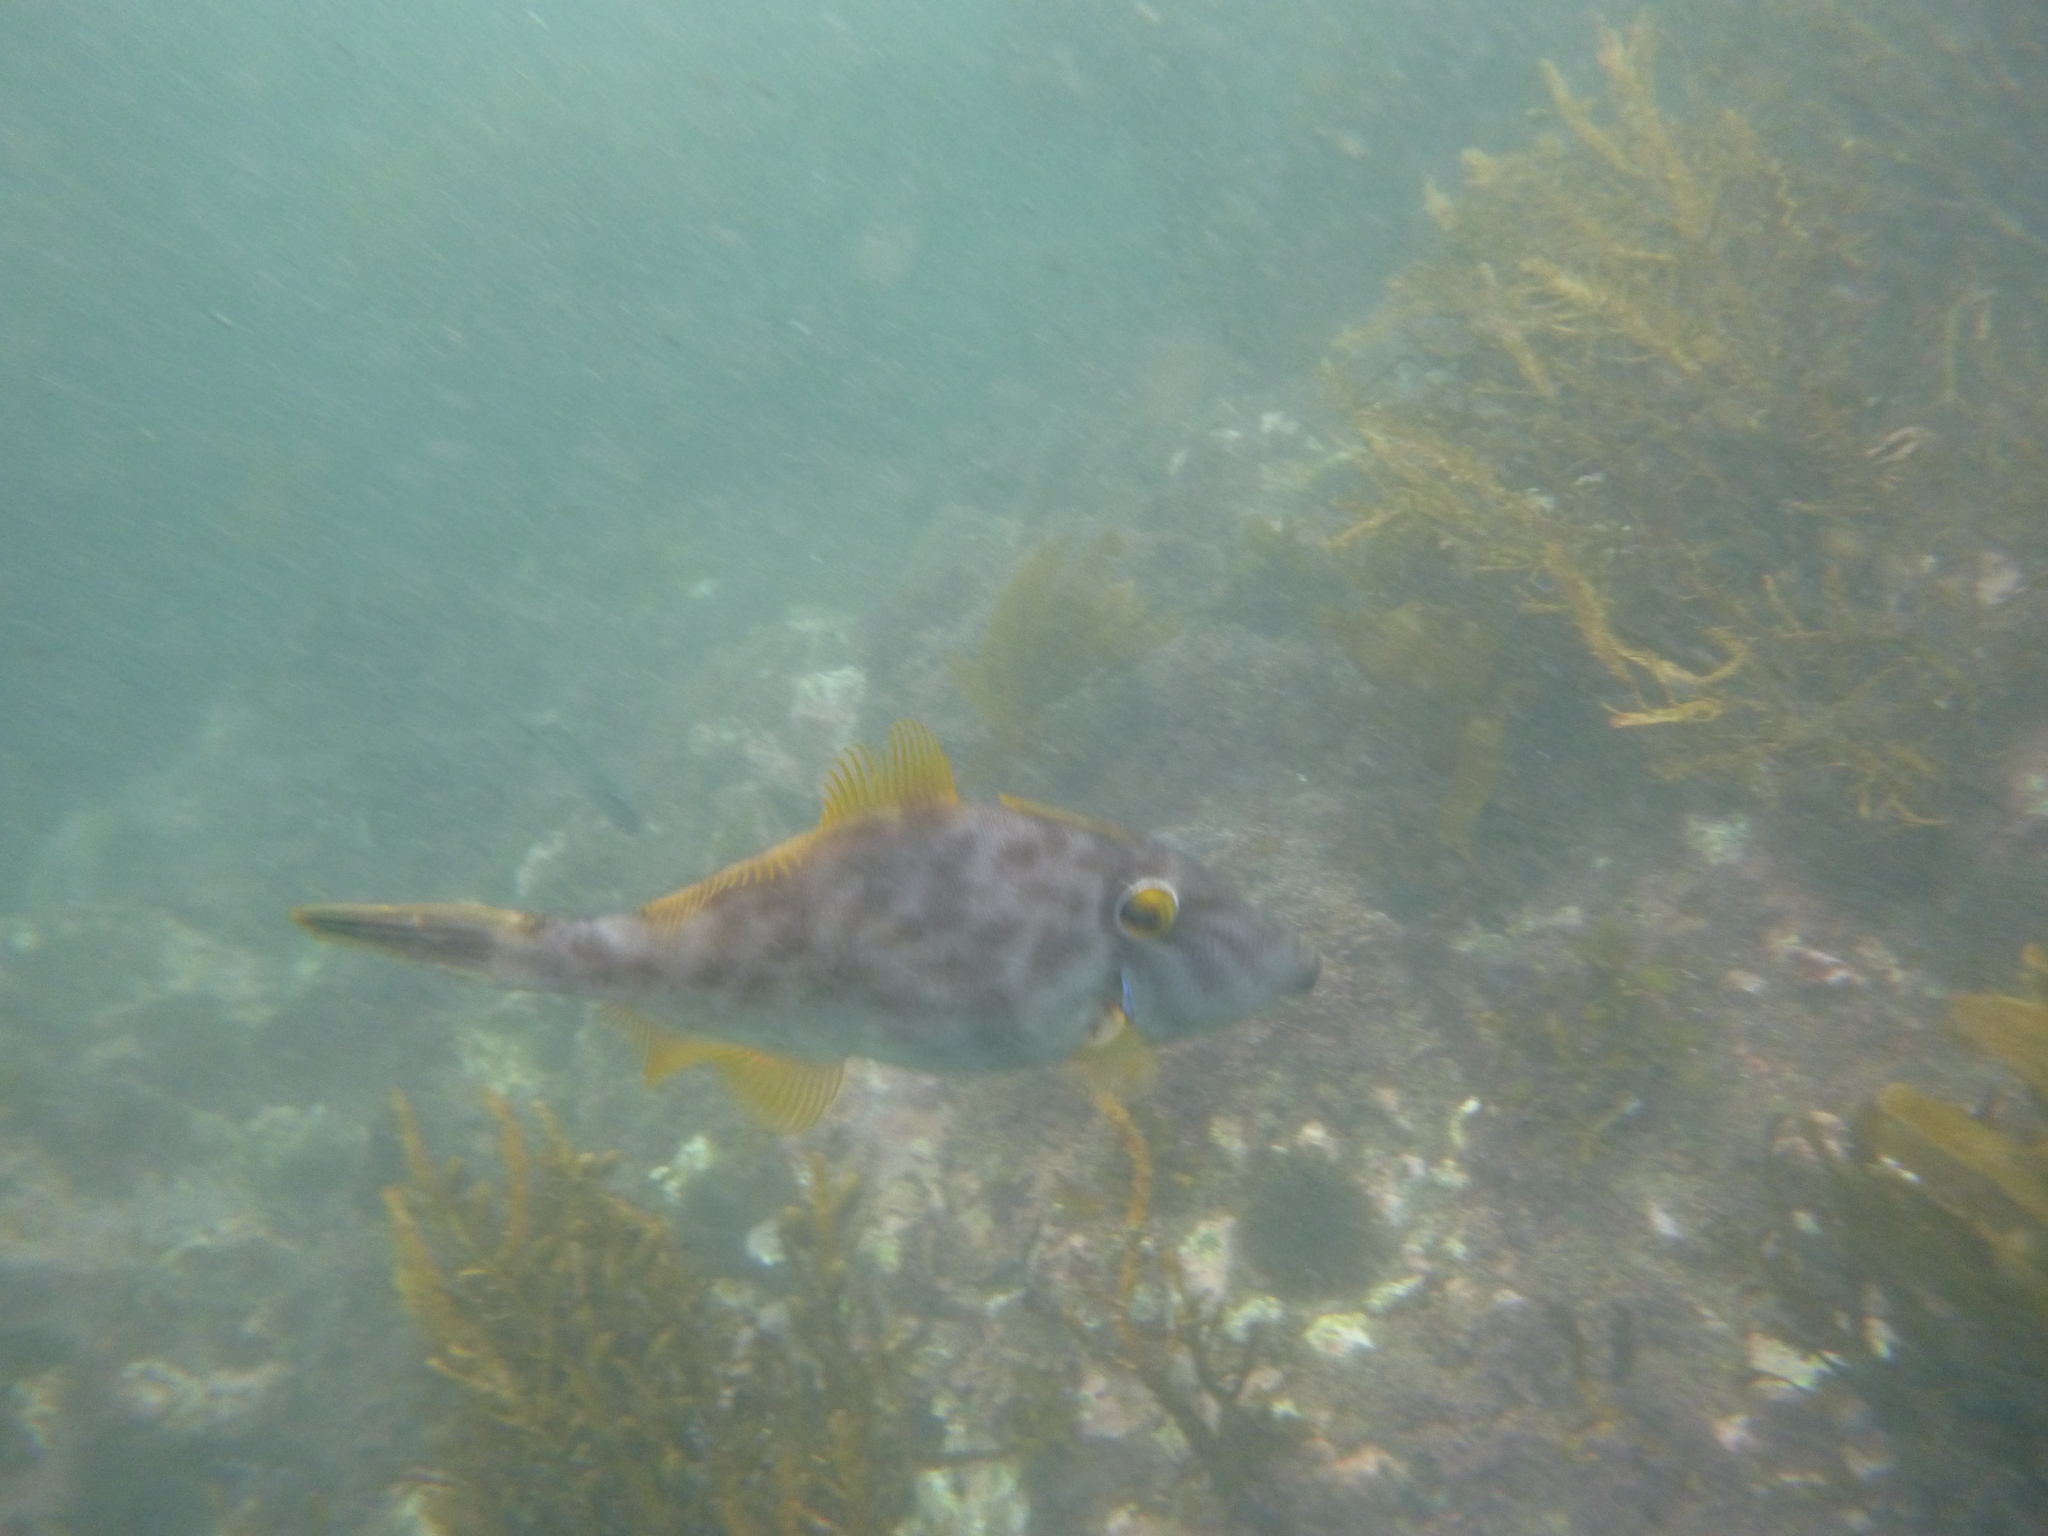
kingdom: Animalia
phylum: Chordata
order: Tetraodontiformes
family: Monacanthidae
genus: Meuschenia
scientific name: Meuschenia scaber
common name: Cosmopolitan leatherjacket
